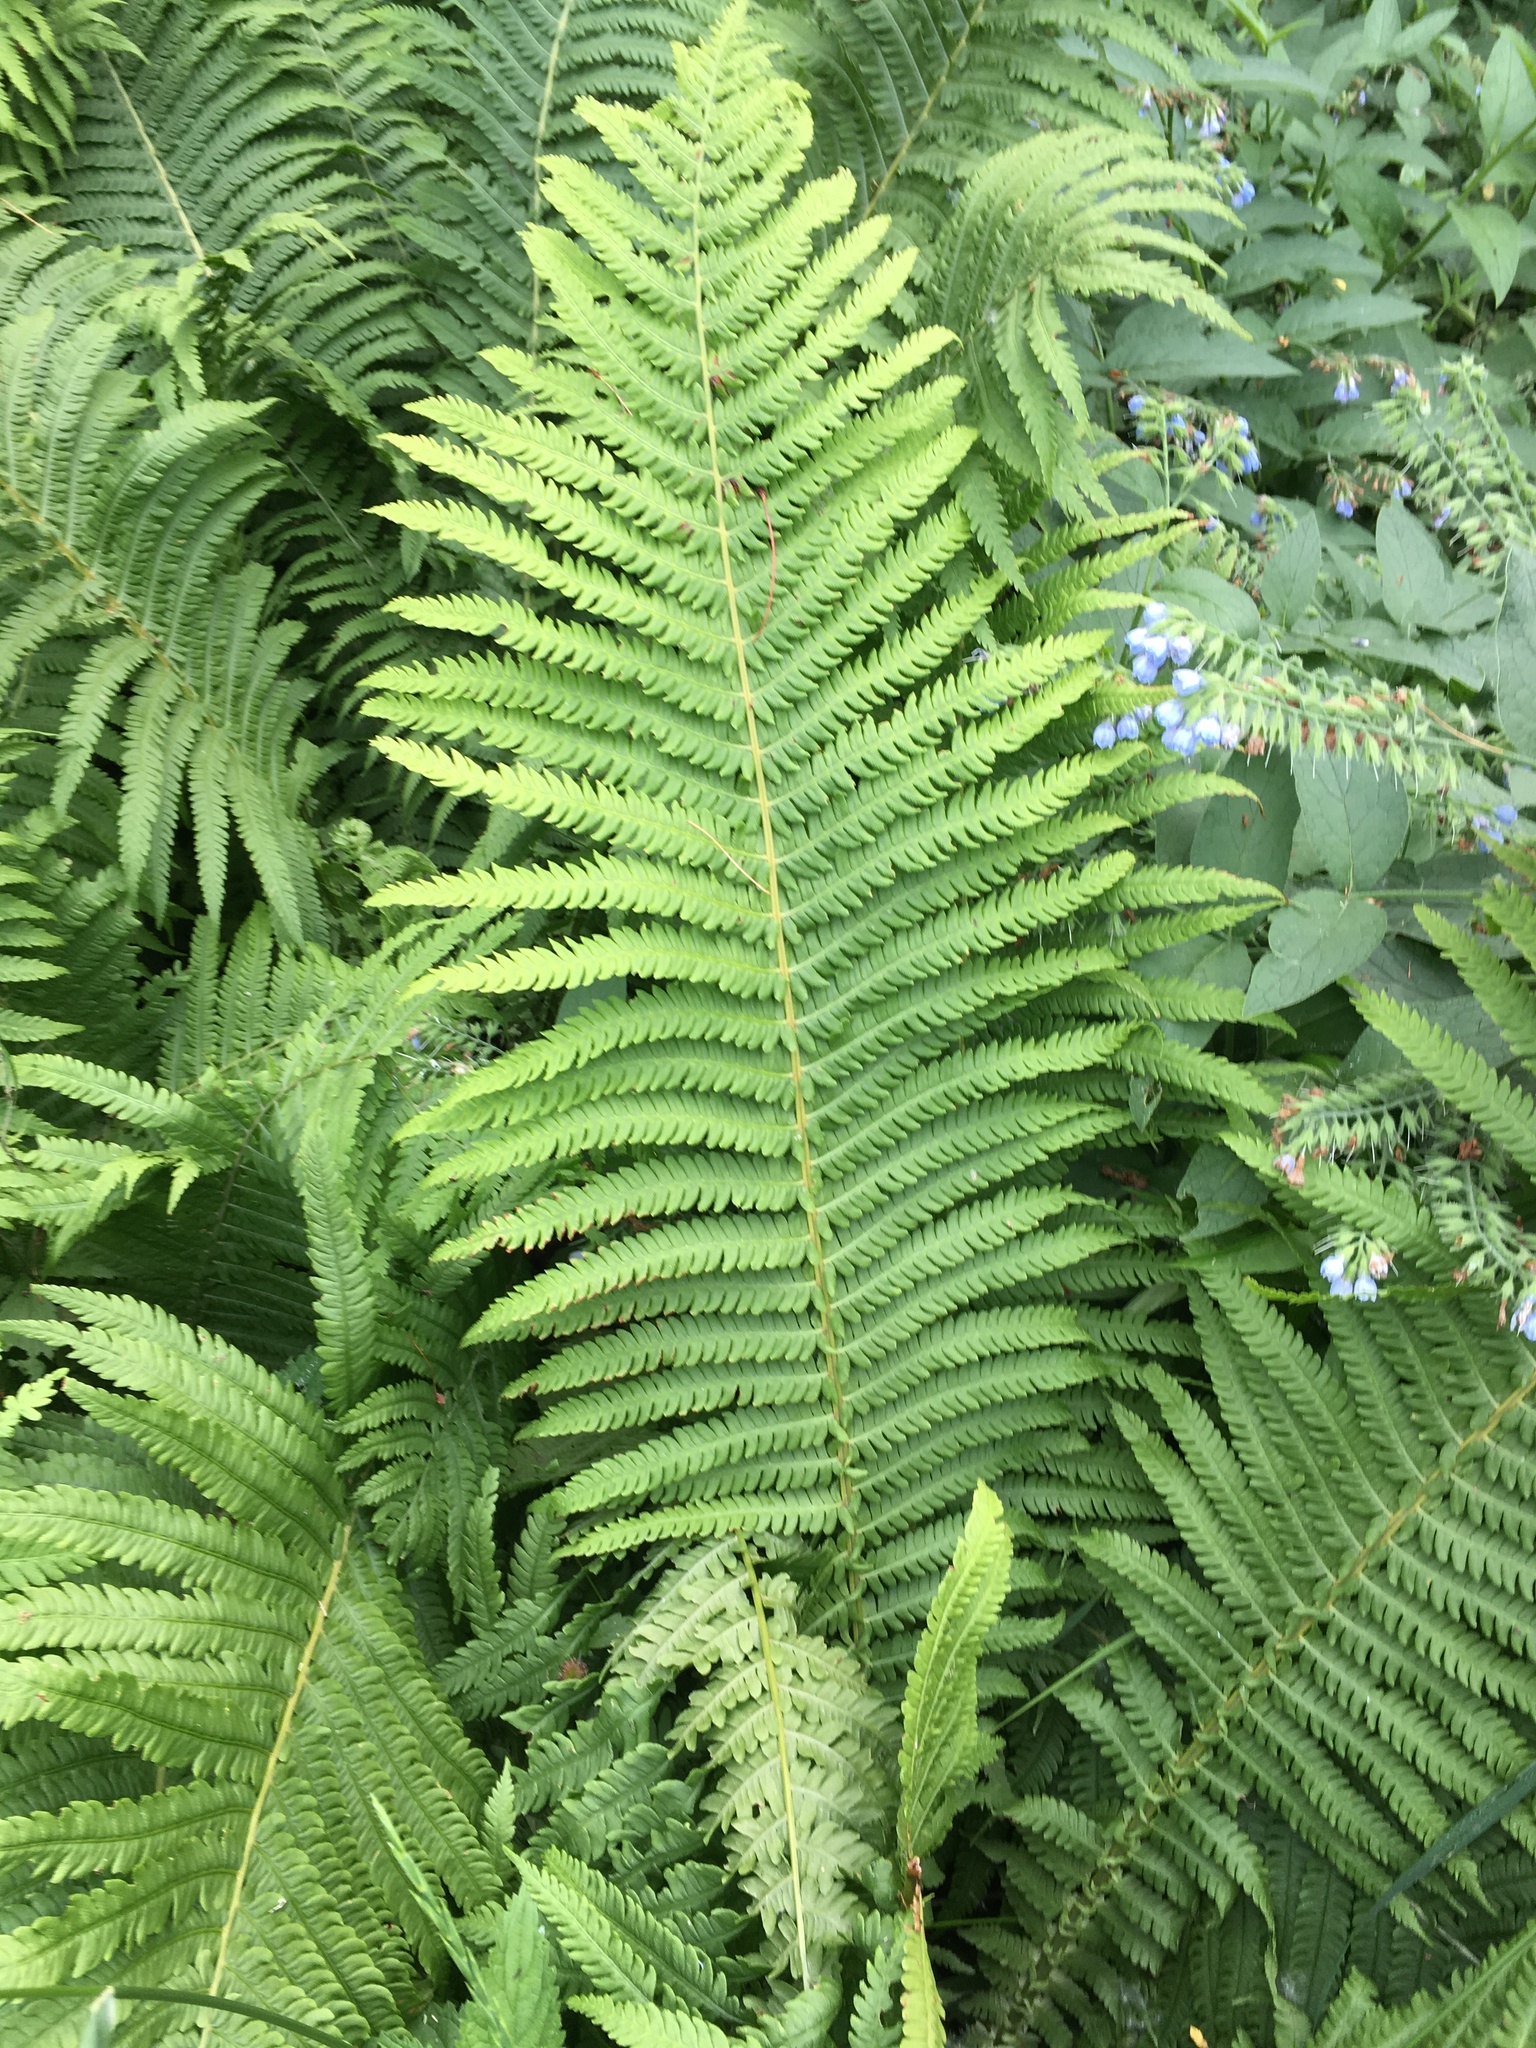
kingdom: Plantae
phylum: Tracheophyta
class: Polypodiopsida
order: Polypodiales
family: Onocleaceae
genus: Matteuccia
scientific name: Matteuccia struthiopteris
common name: Ostrich fern
